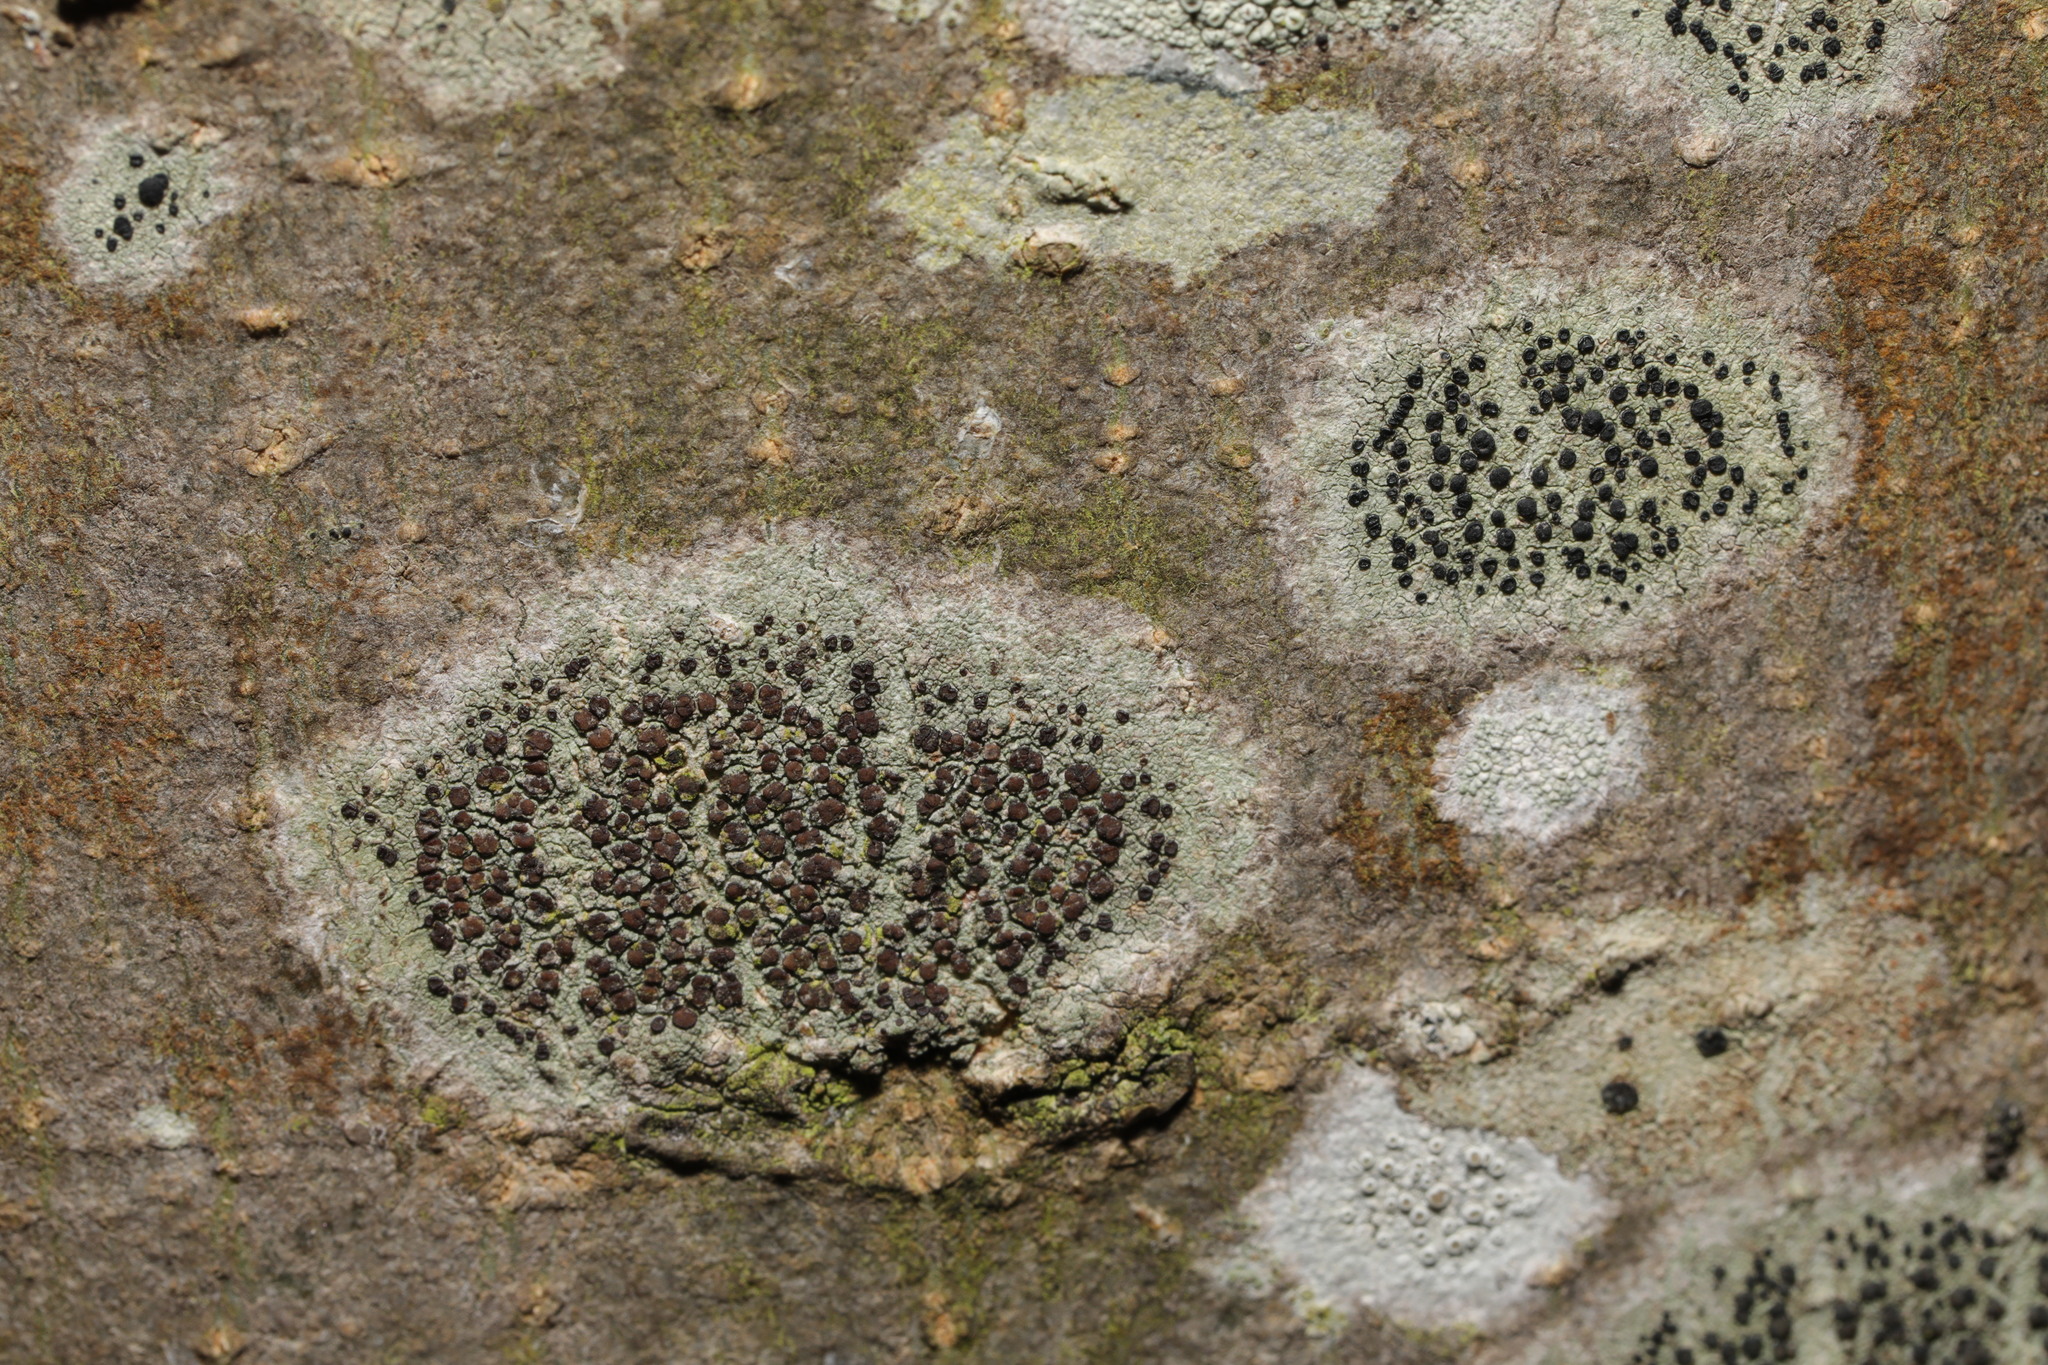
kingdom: Fungi
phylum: Ascomycota
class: Lecanoromycetes
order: Lecanorales
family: Lecanoraceae
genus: Lecidella
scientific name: Lecidella elaeochroma
